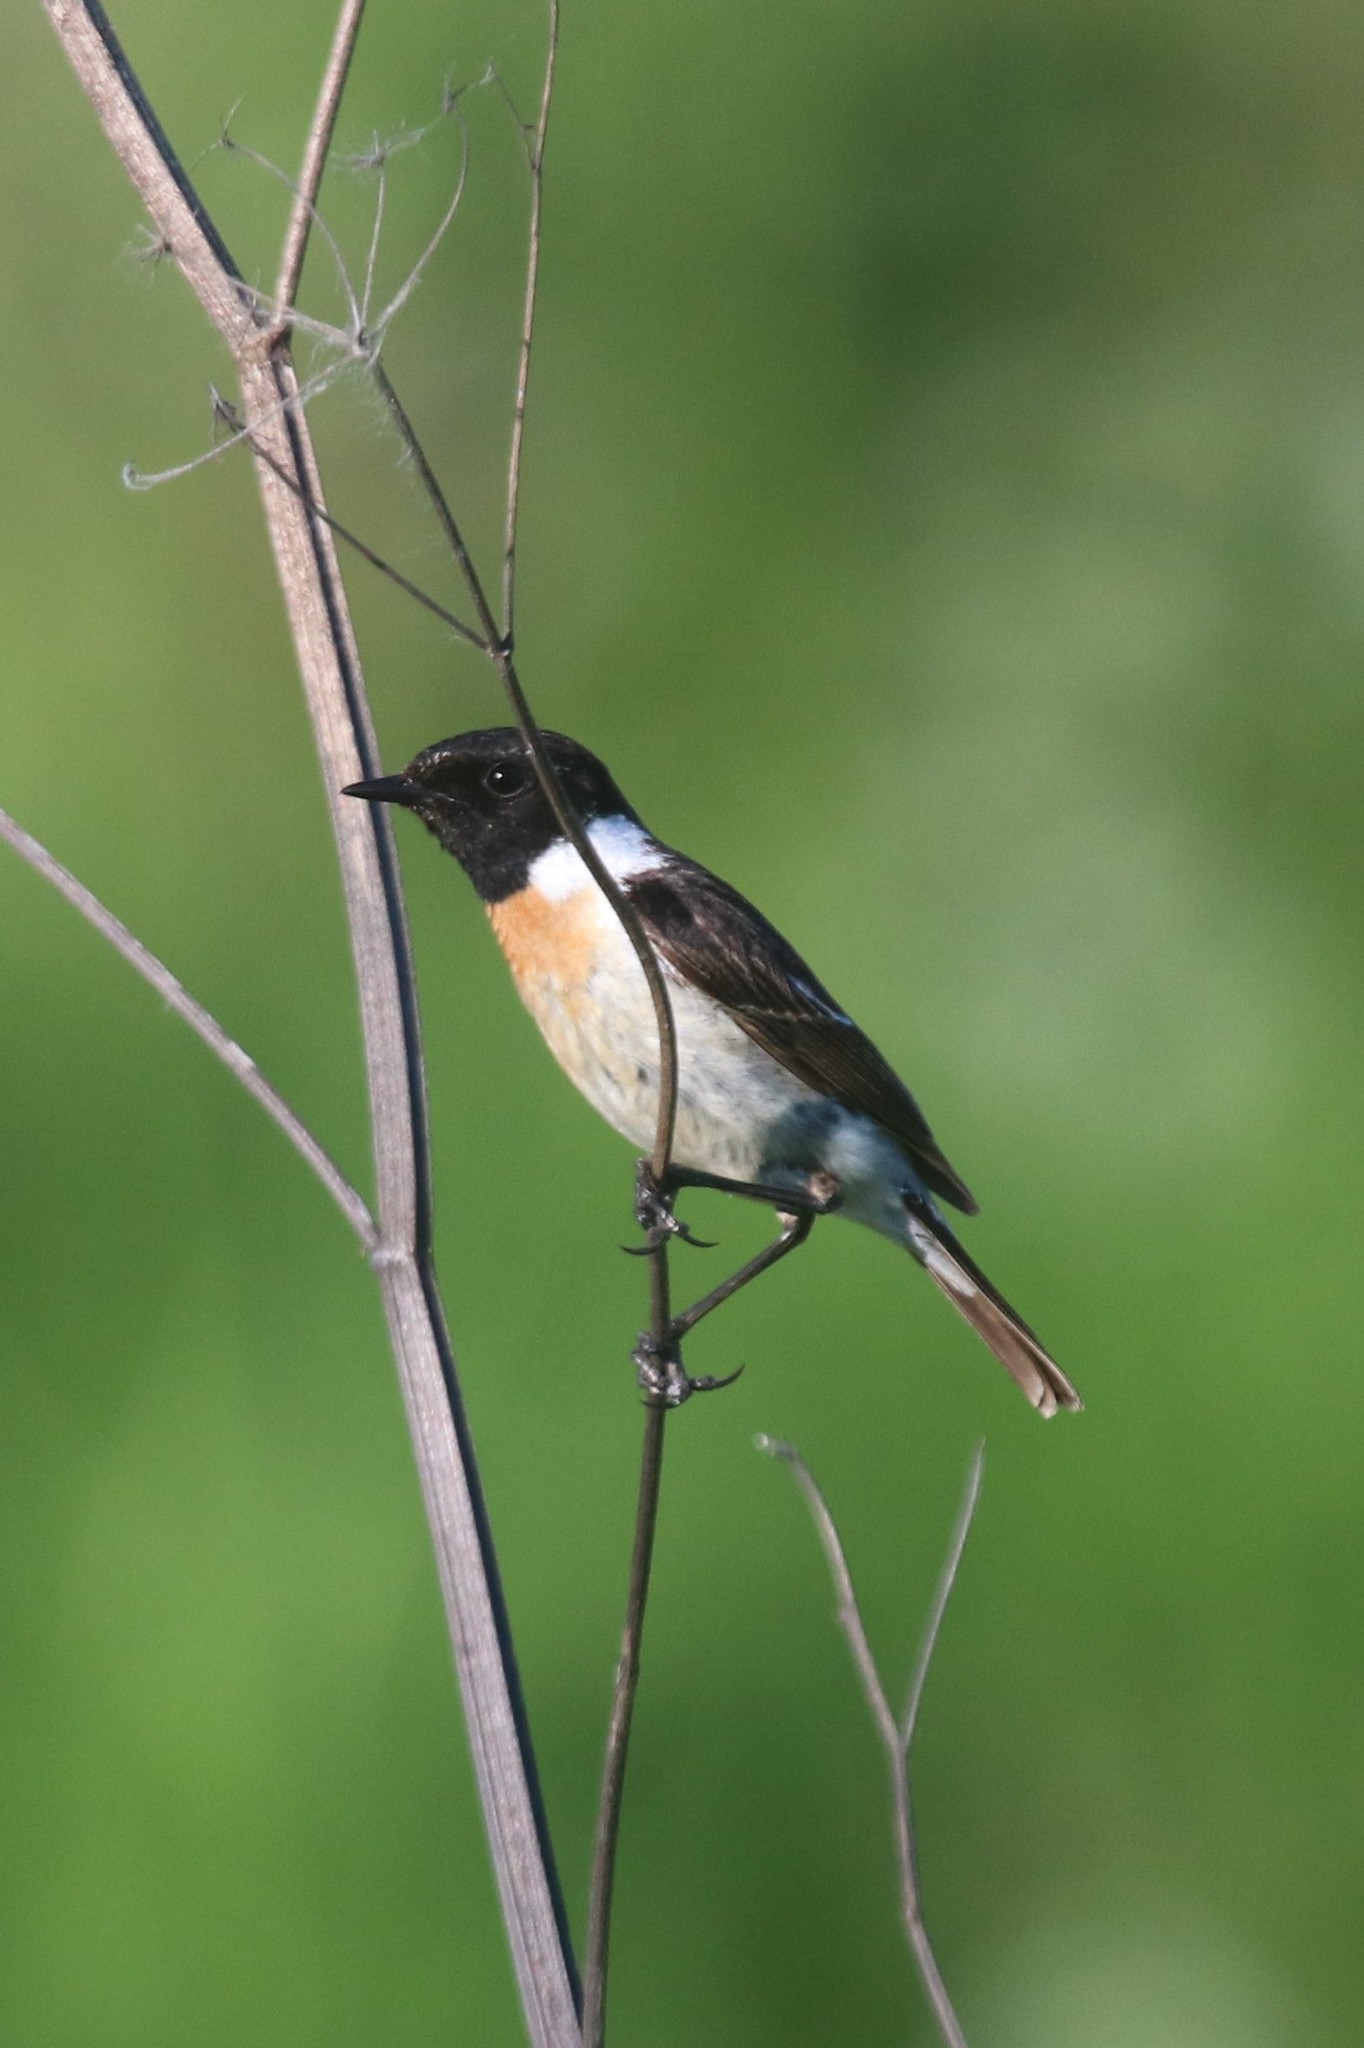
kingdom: Animalia
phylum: Chordata
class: Aves
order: Passeriformes
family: Muscicapidae
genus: Saxicola
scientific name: Saxicola maurus
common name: Siberian stonechat
